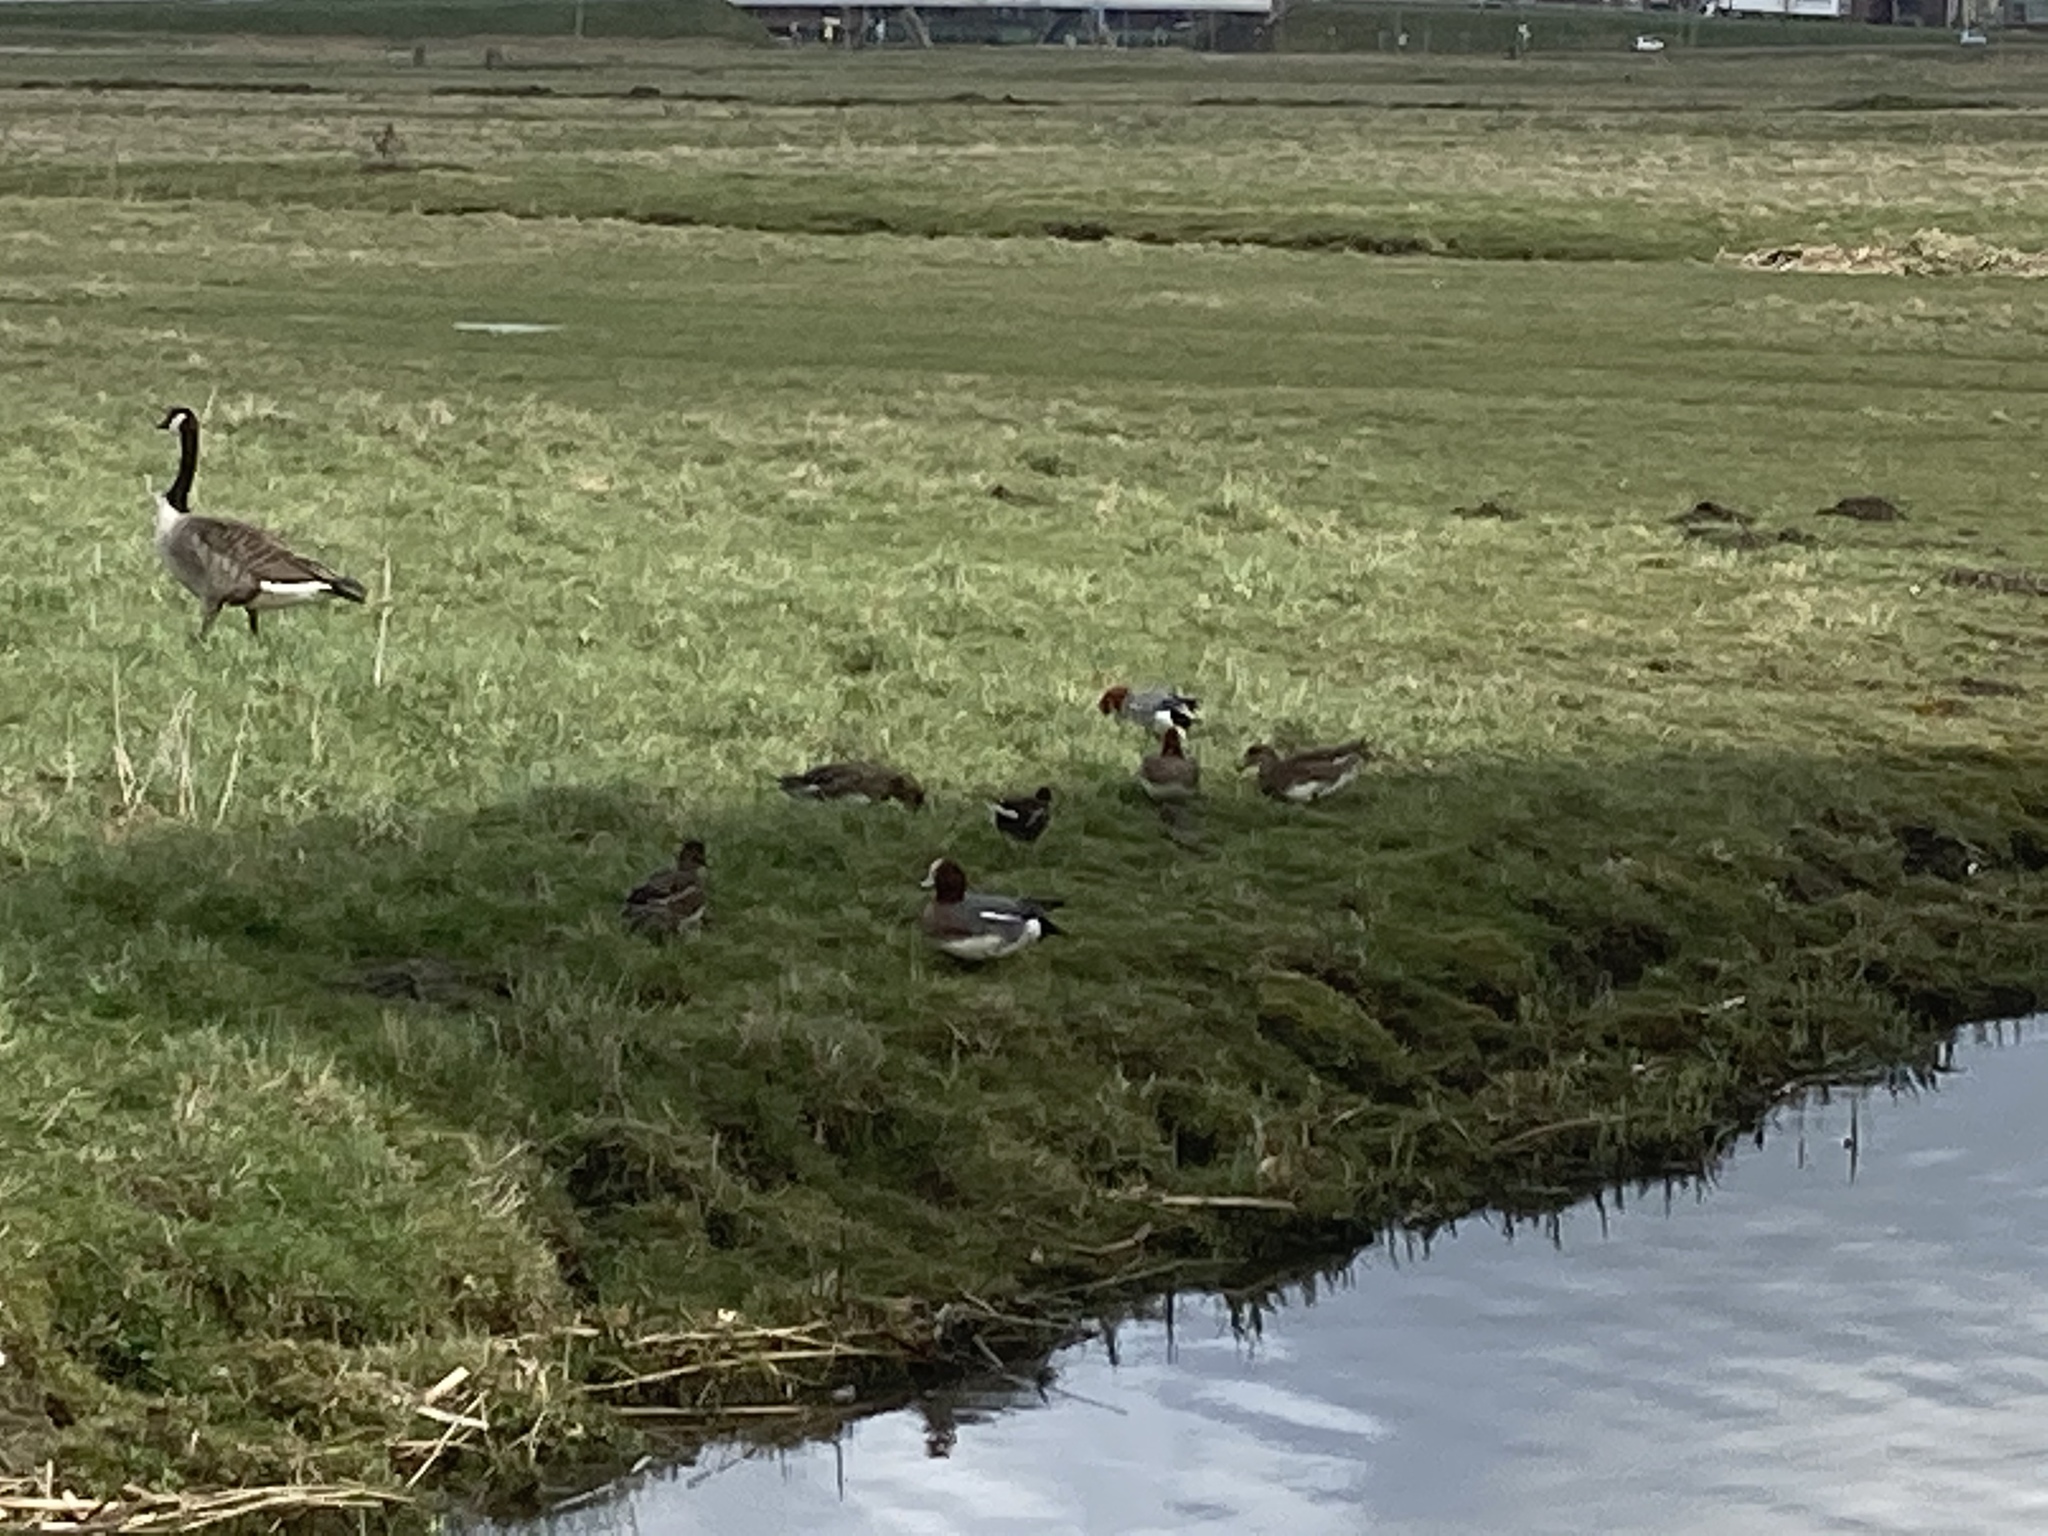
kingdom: Animalia
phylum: Chordata
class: Aves
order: Anseriformes
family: Anatidae
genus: Branta
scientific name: Branta canadensis
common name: Canada goose
